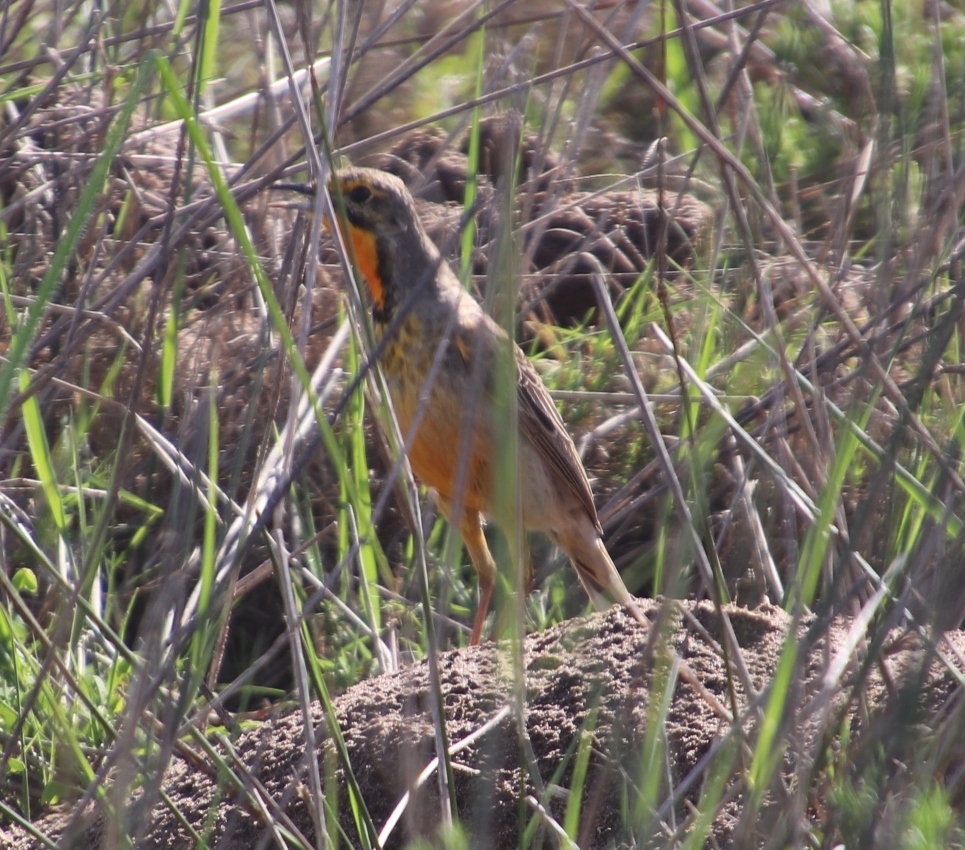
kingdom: Animalia
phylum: Chordata
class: Aves
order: Passeriformes
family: Motacillidae
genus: Macronyx
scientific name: Macronyx capensis
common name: Cape longclaw
